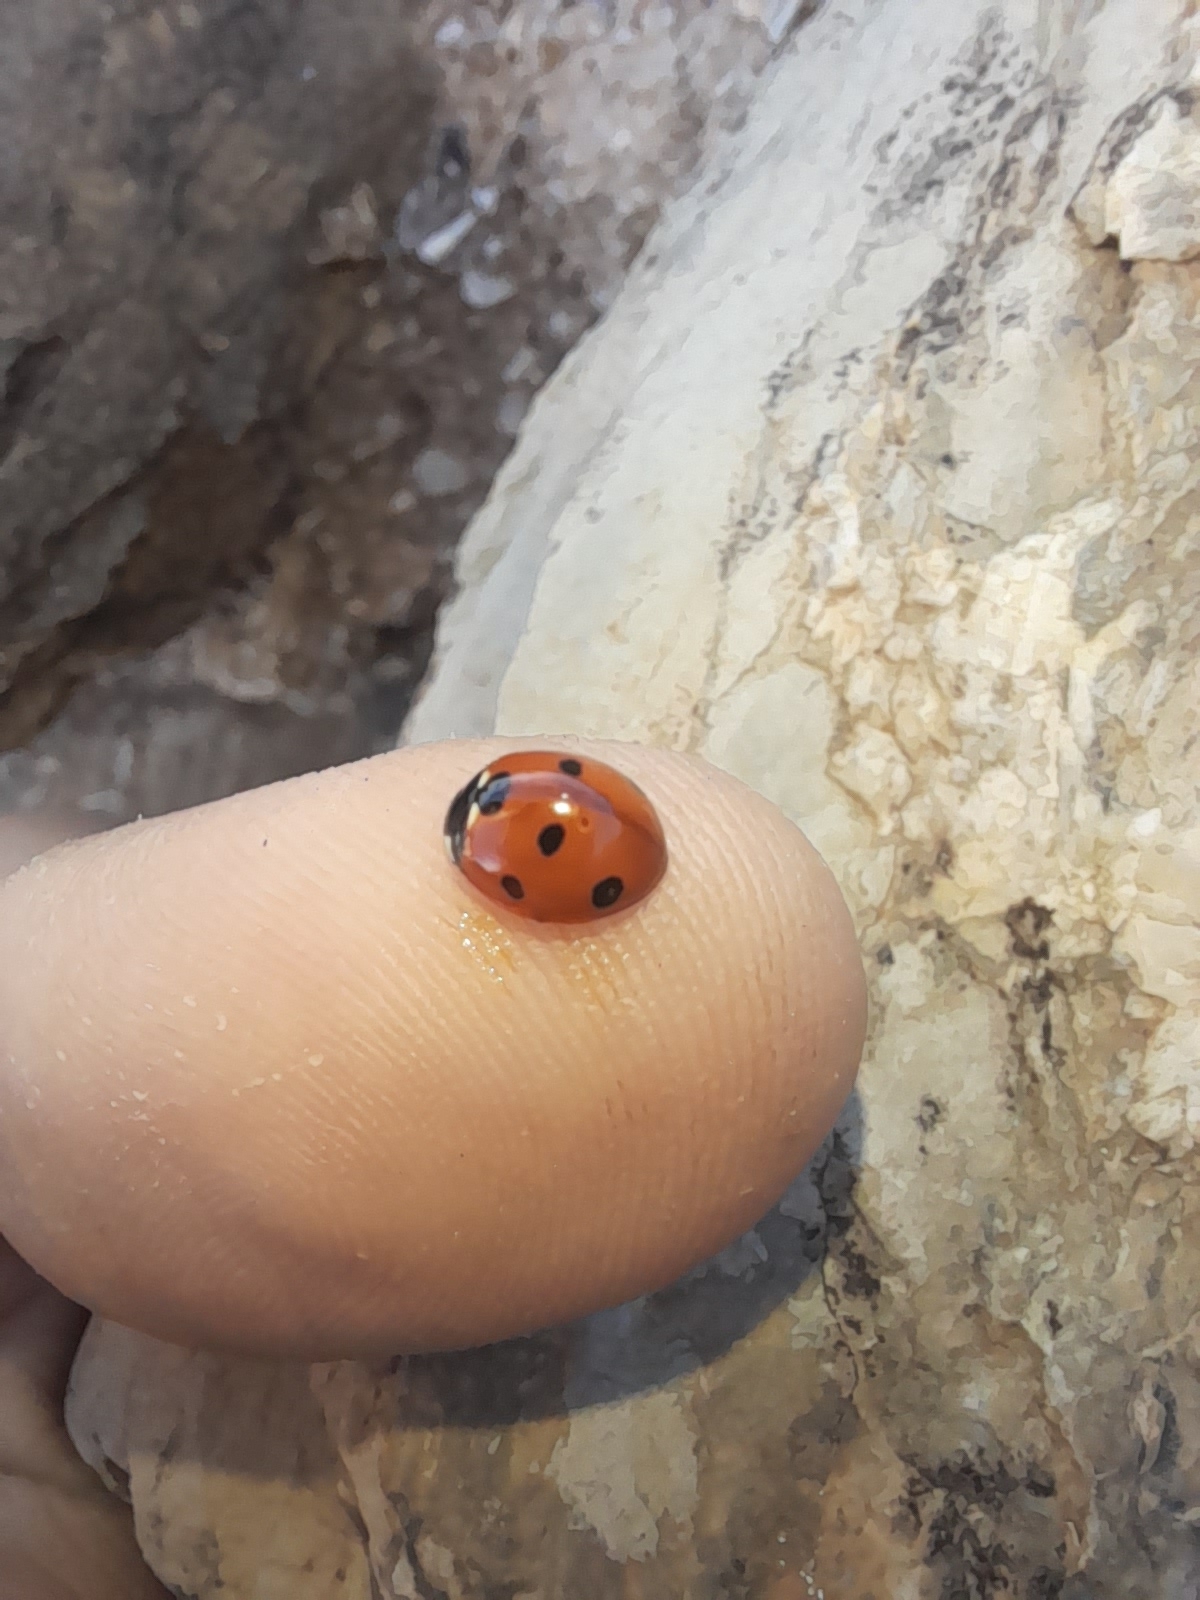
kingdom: Animalia
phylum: Arthropoda
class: Insecta
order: Coleoptera
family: Coccinellidae
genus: Coccinella
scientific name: Coccinella septempunctata
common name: Sevenspotted lady beetle
